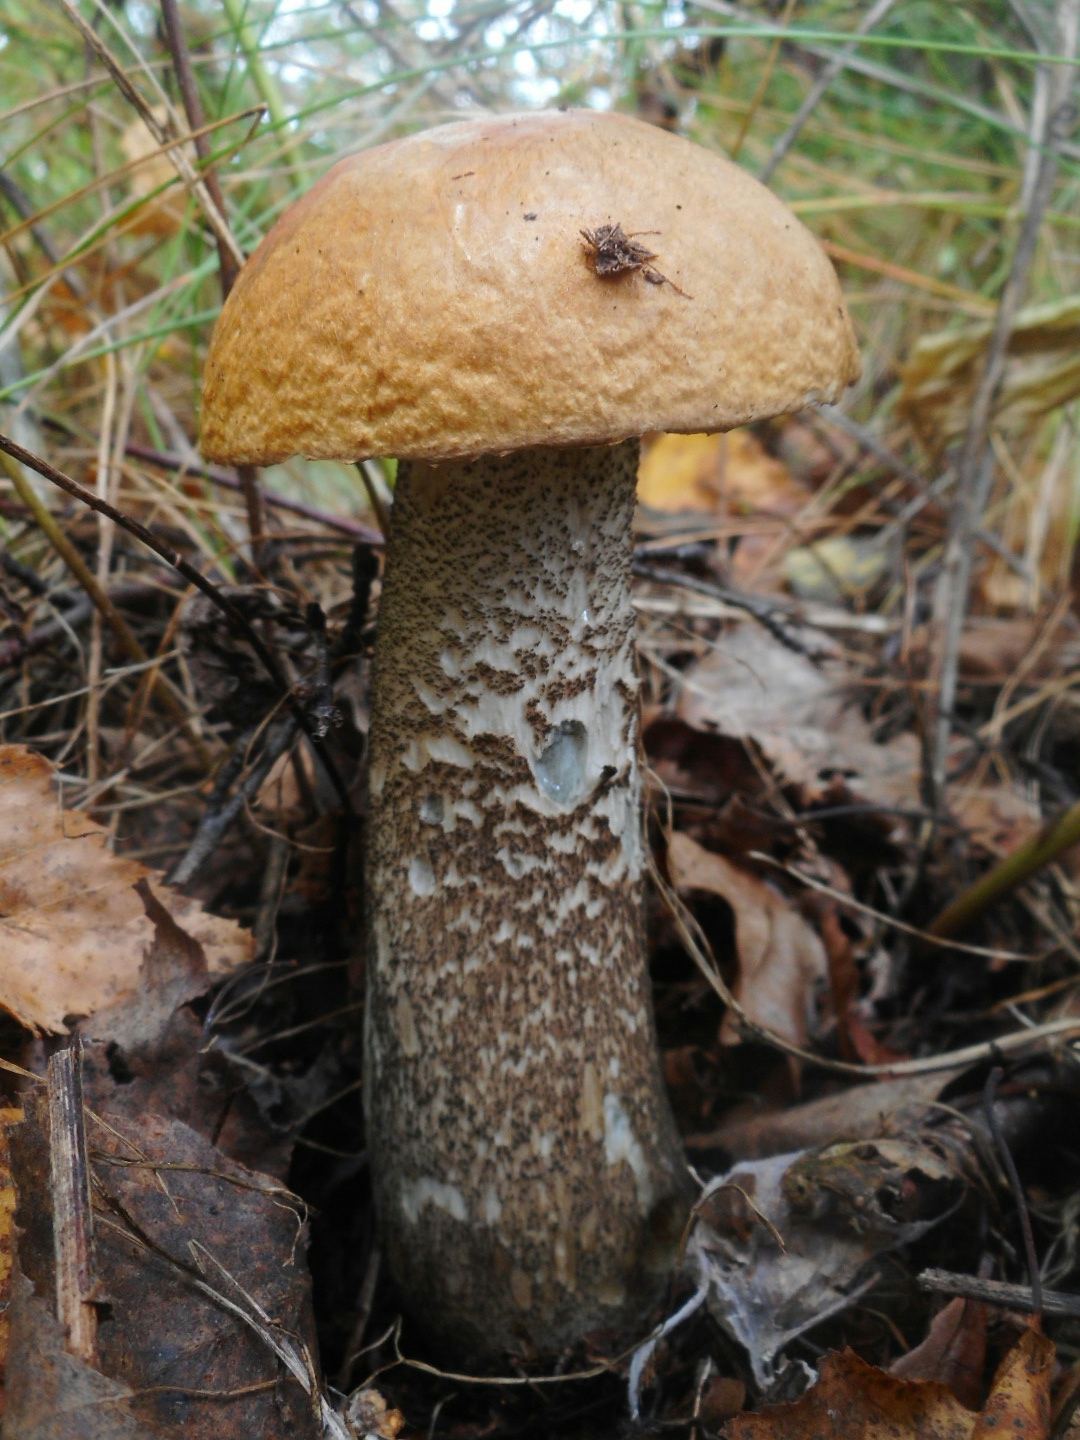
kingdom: Fungi
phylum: Basidiomycota
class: Agaricomycetes
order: Boletales
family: Boletaceae
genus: Leccinum
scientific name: Leccinum versipelle
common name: Orange birch bolete
